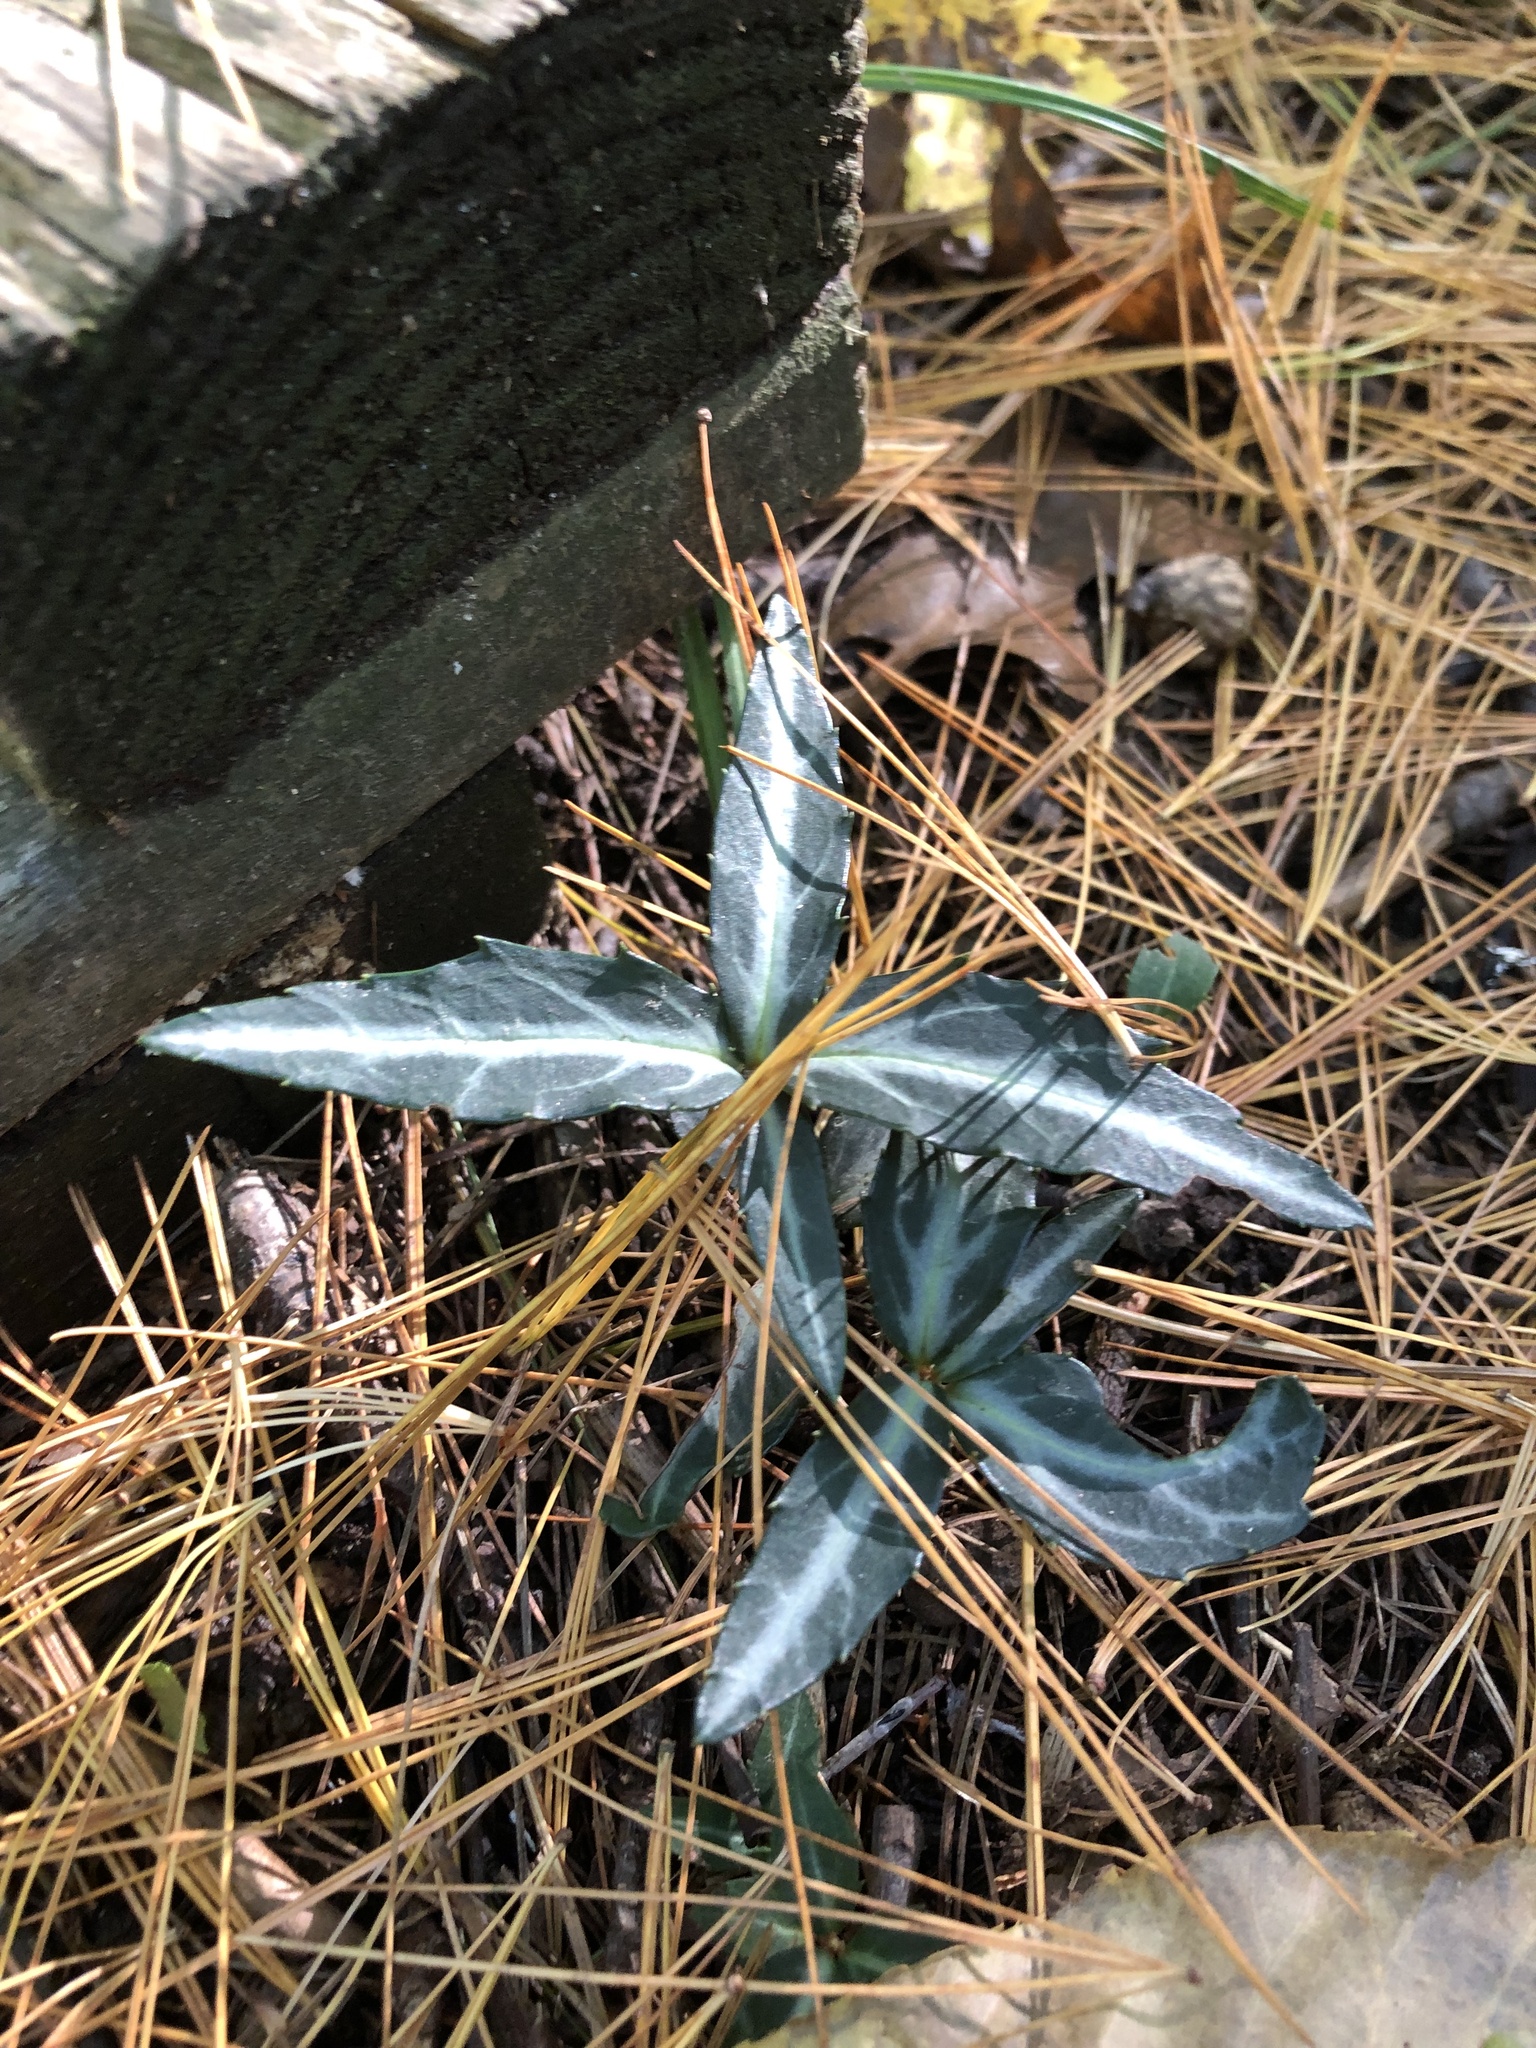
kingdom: Plantae
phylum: Tracheophyta
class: Magnoliopsida
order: Ericales
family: Ericaceae
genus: Chimaphila
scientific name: Chimaphila maculata
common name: Spotted pipsissewa
